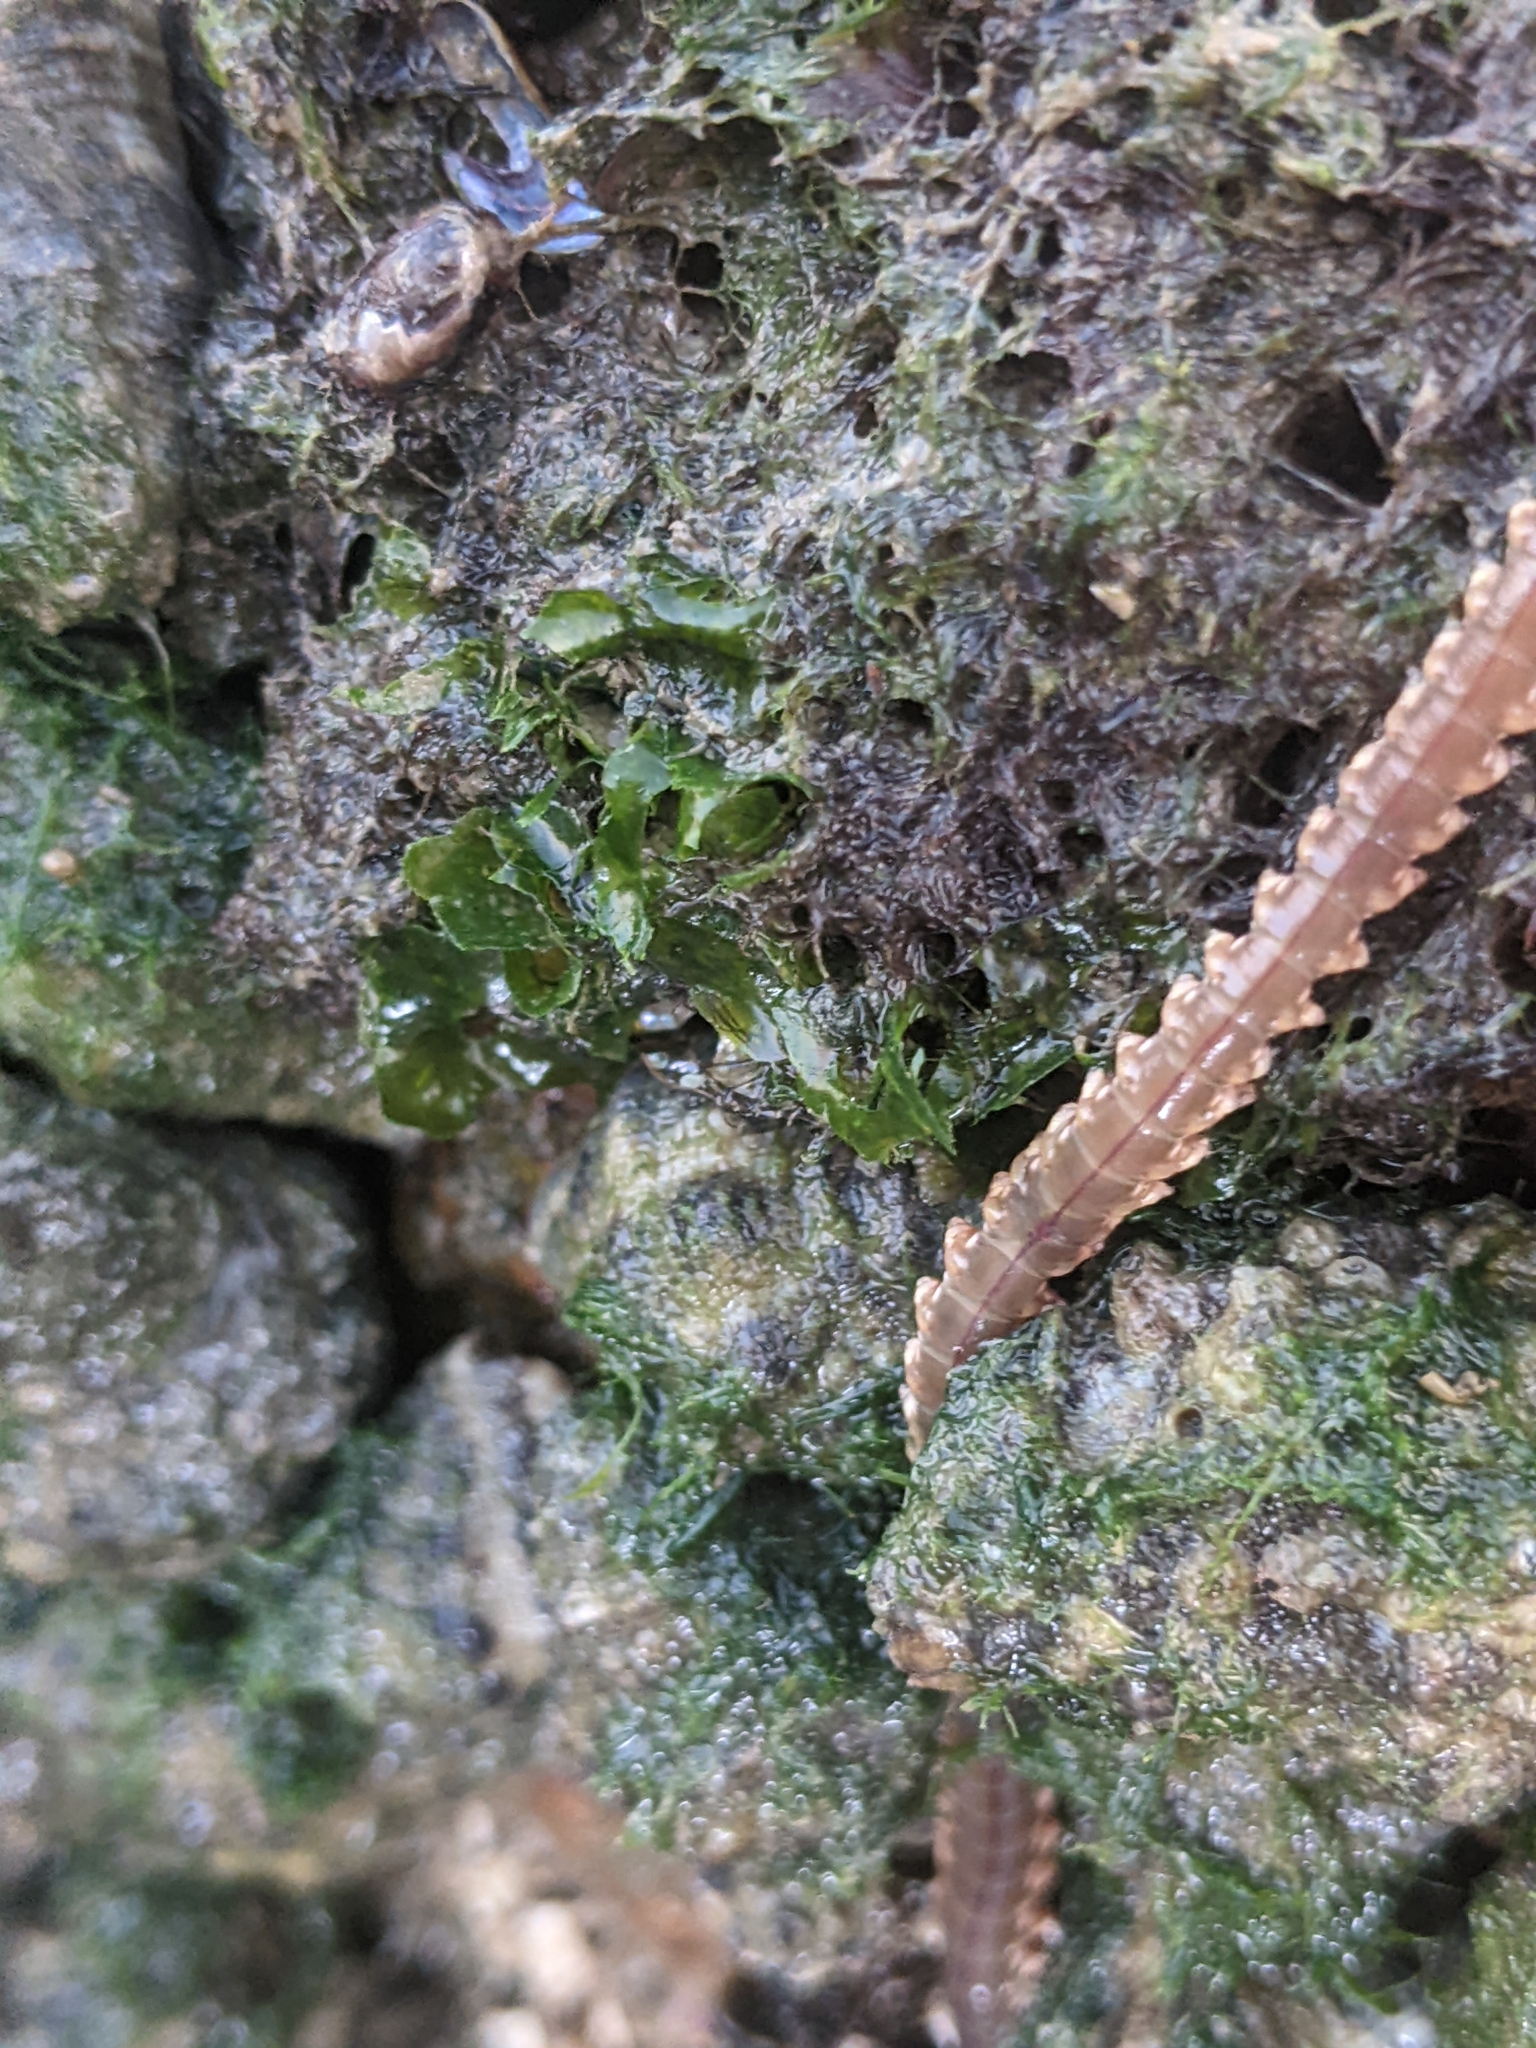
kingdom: Animalia
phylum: Annelida
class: Polychaeta
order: Amphinomida
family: Amphinomidae
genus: Eurythoe
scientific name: Eurythoe complanata
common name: Fireworm
